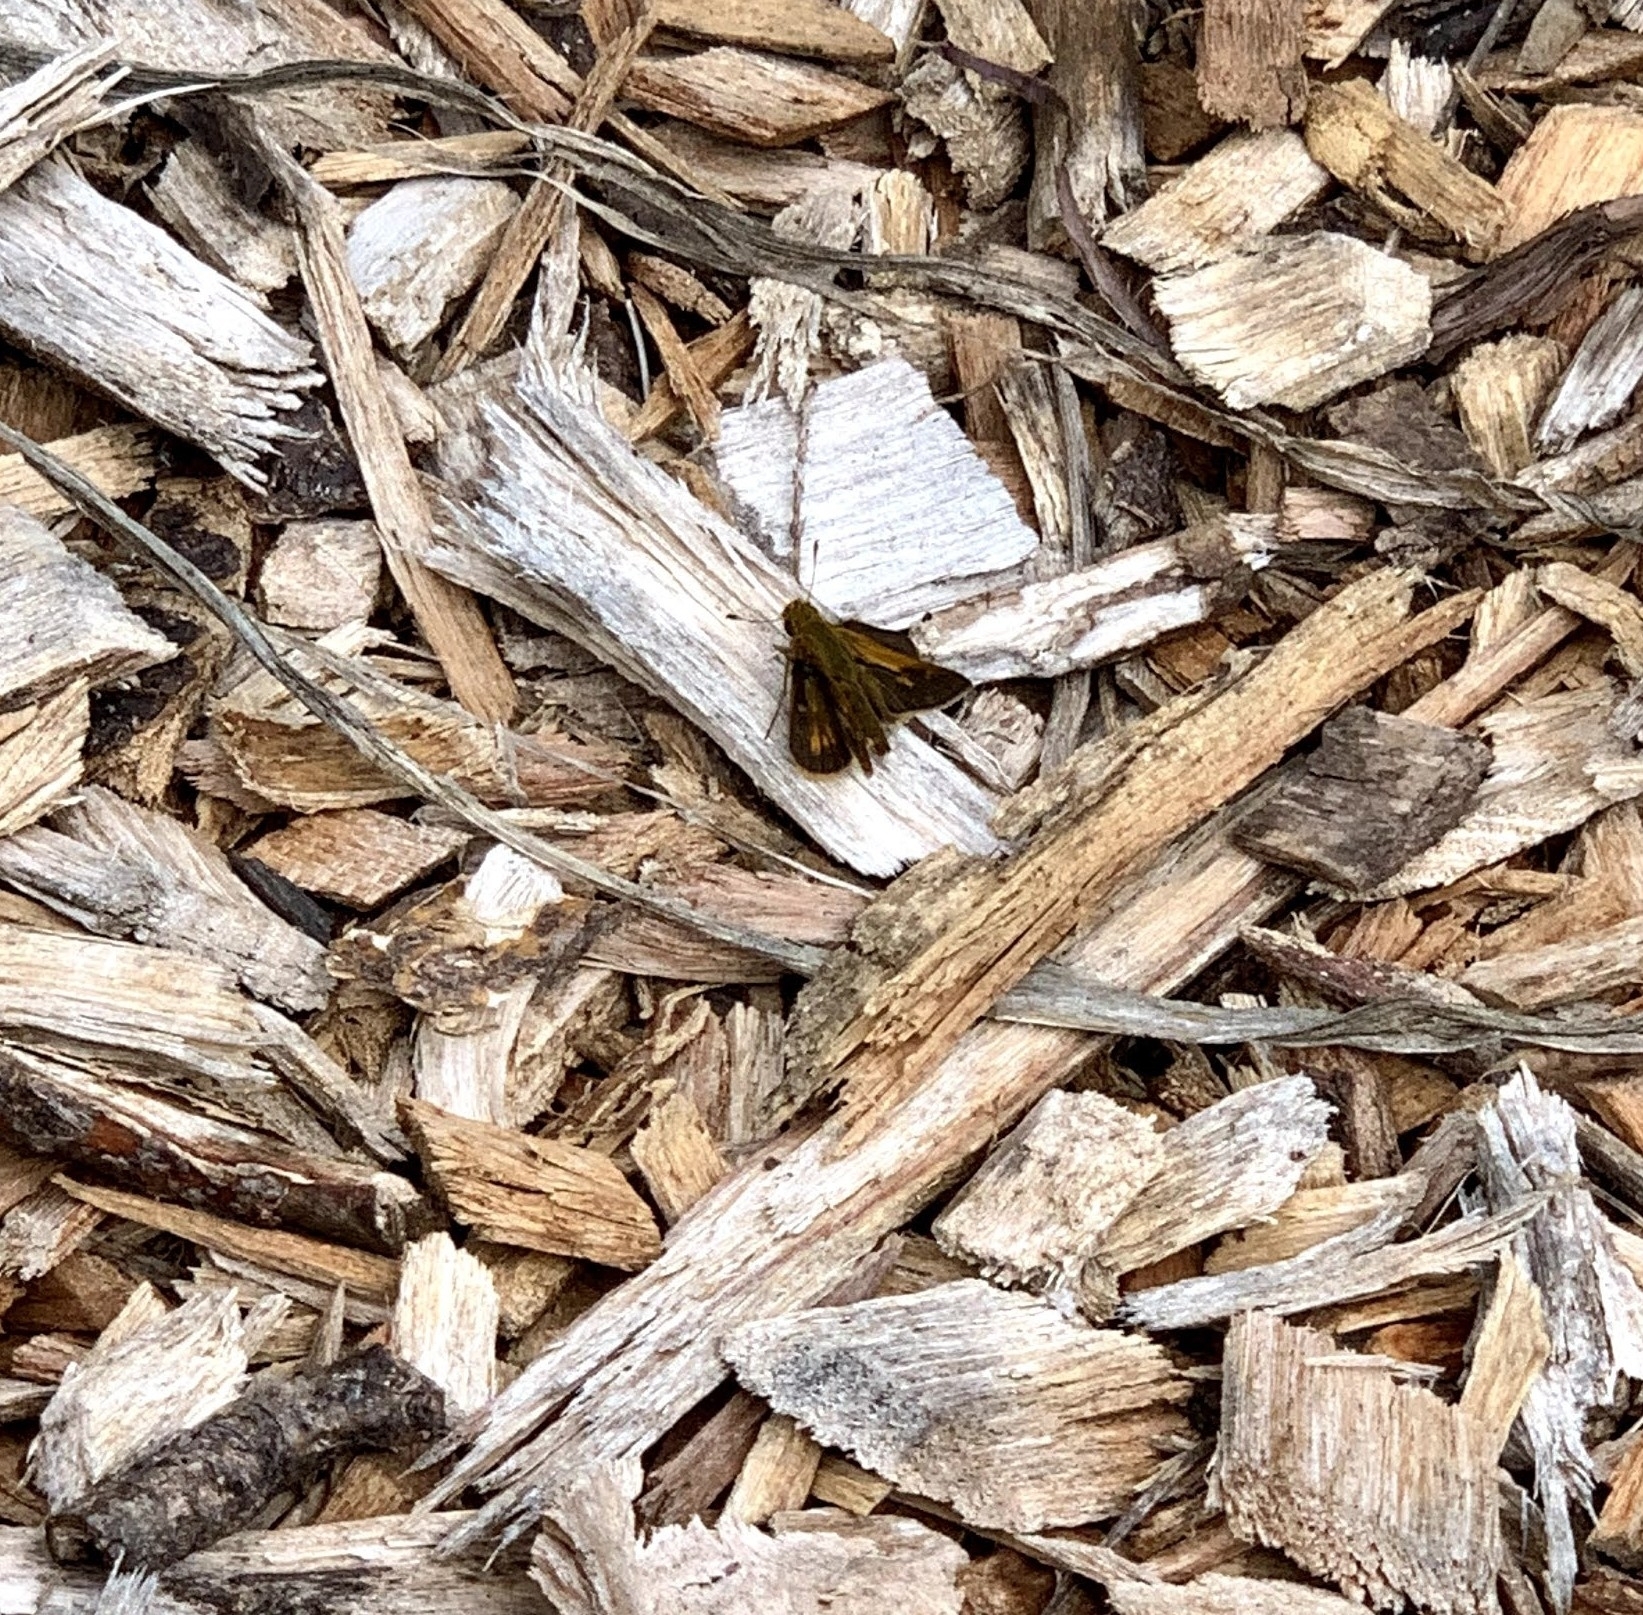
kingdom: Animalia
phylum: Arthropoda
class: Insecta
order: Lepidoptera
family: Hesperiidae
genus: Polites
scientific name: Polites coras
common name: Peck's skipper
